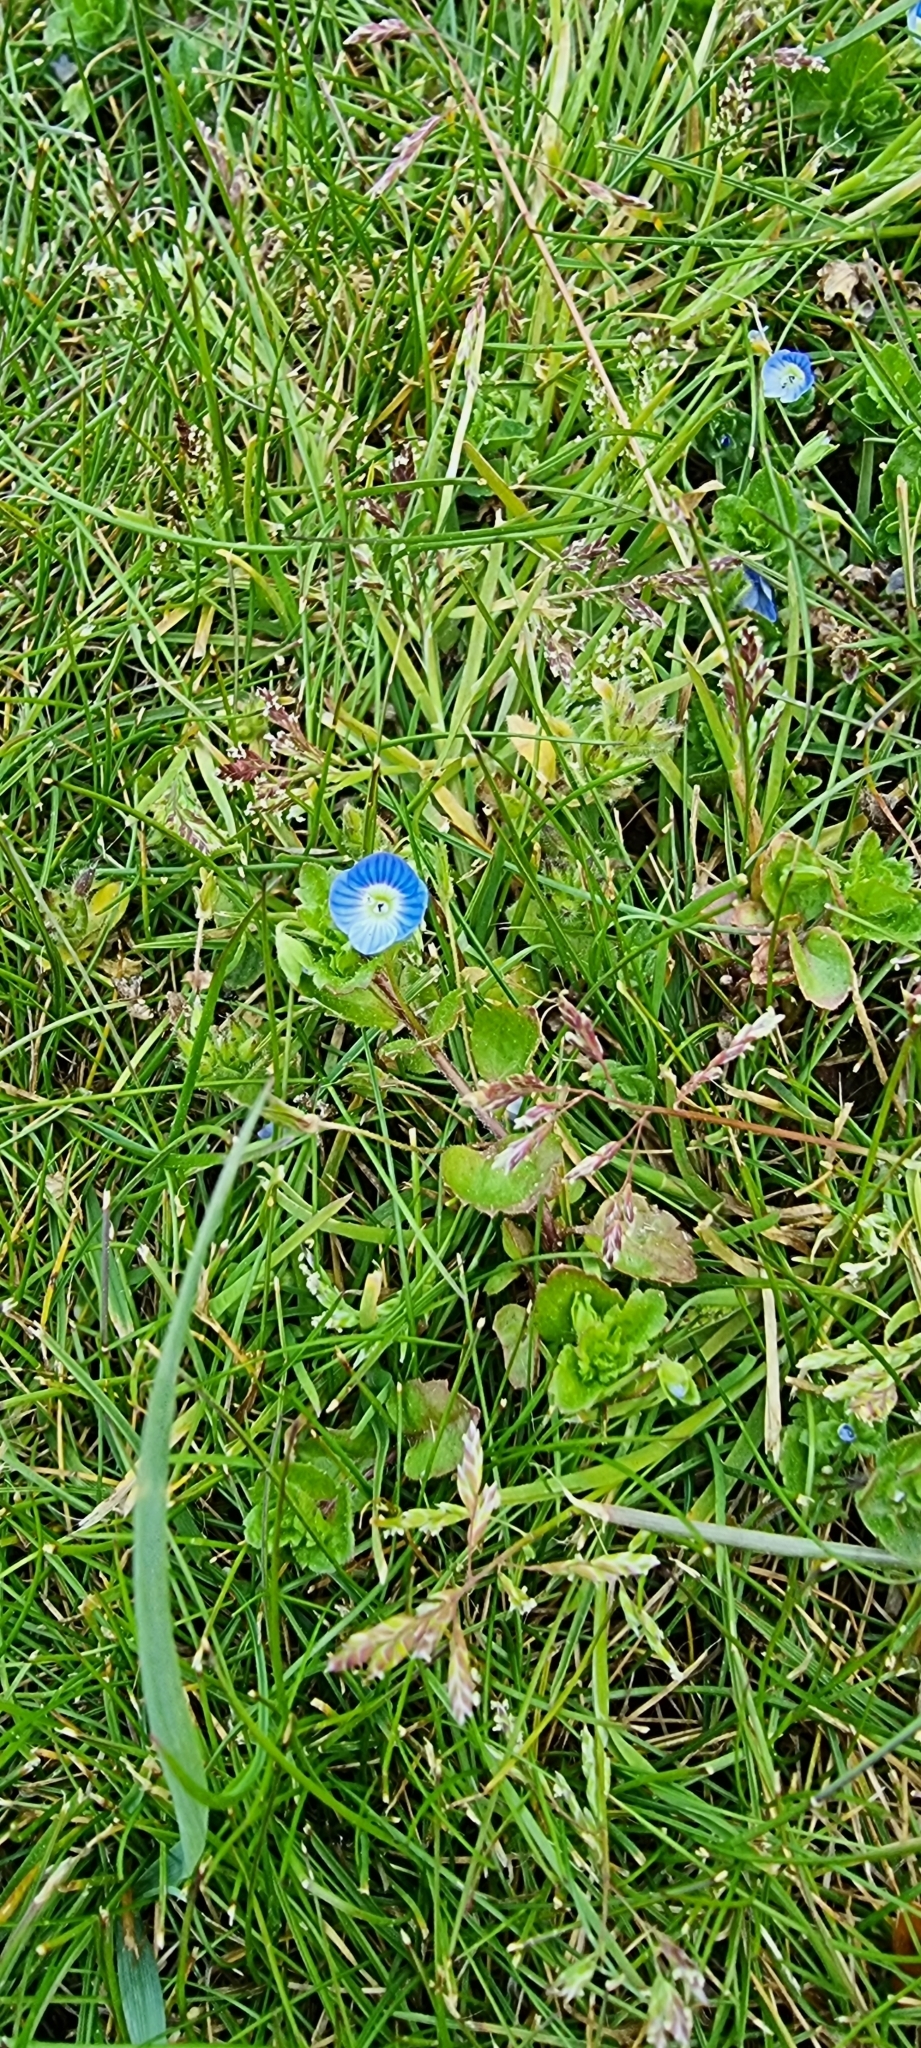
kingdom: Plantae
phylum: Tracheophyta
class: Magnoliopsida
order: Lamiales
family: Plantaginaceae
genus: Veronica
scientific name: Veronica persica
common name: Common field-speedwell
